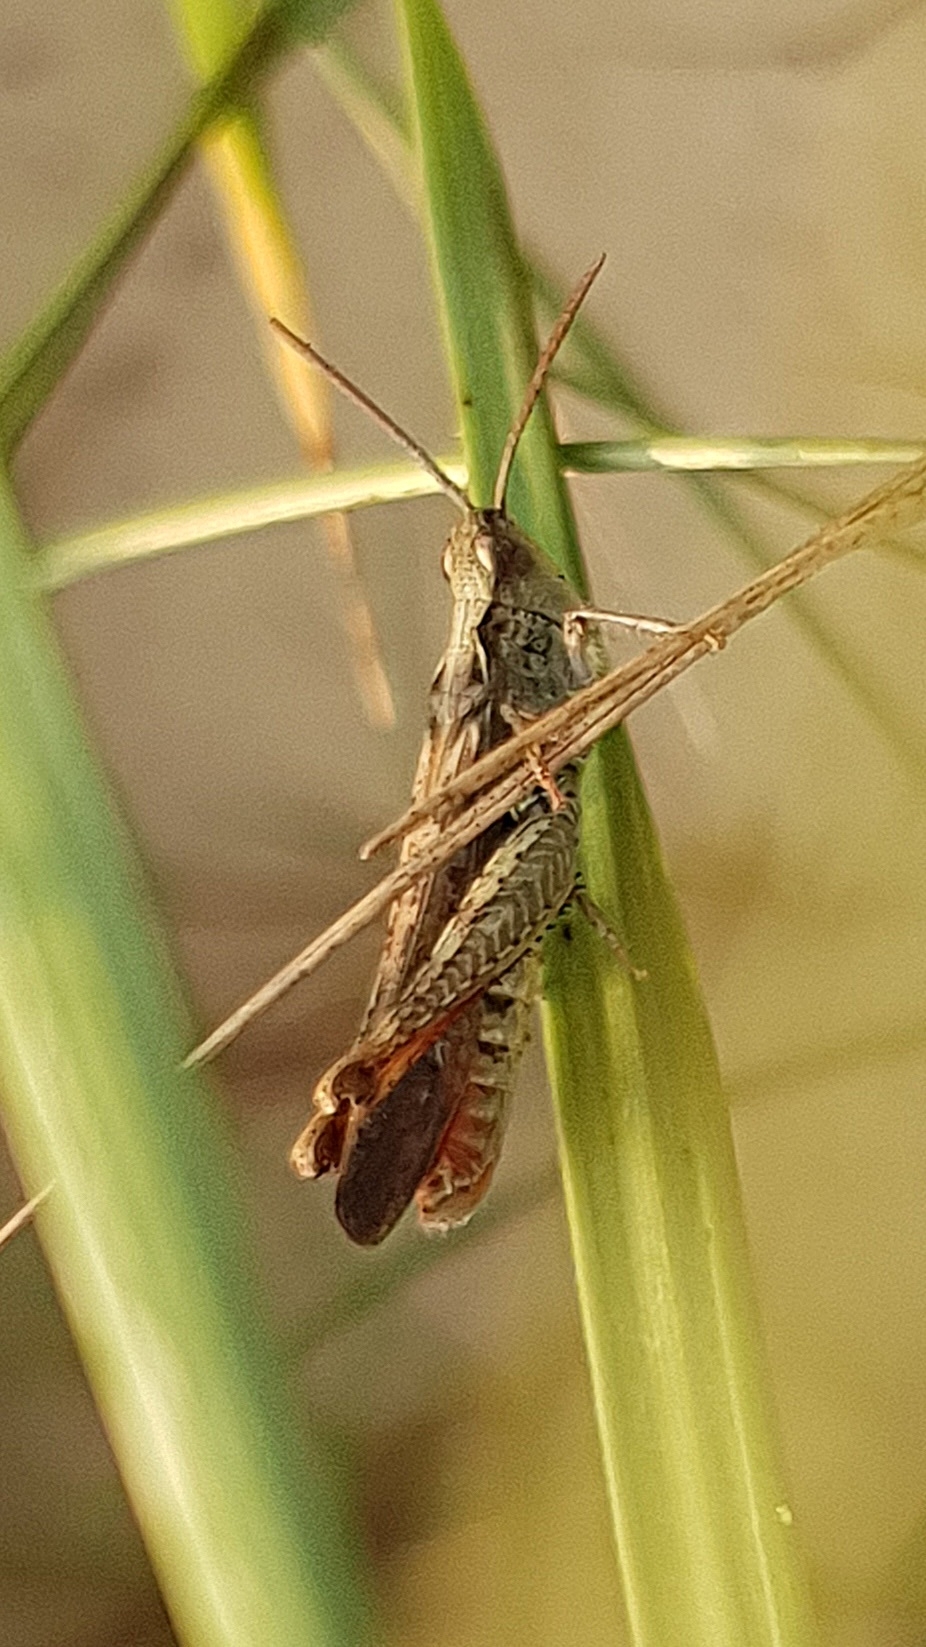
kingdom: Animalia
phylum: Arthropoda
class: Insecta
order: Orthoptera
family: Acrididae
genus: Chorthippus
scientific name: Chorthippus brunneus
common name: Field grasshopper
